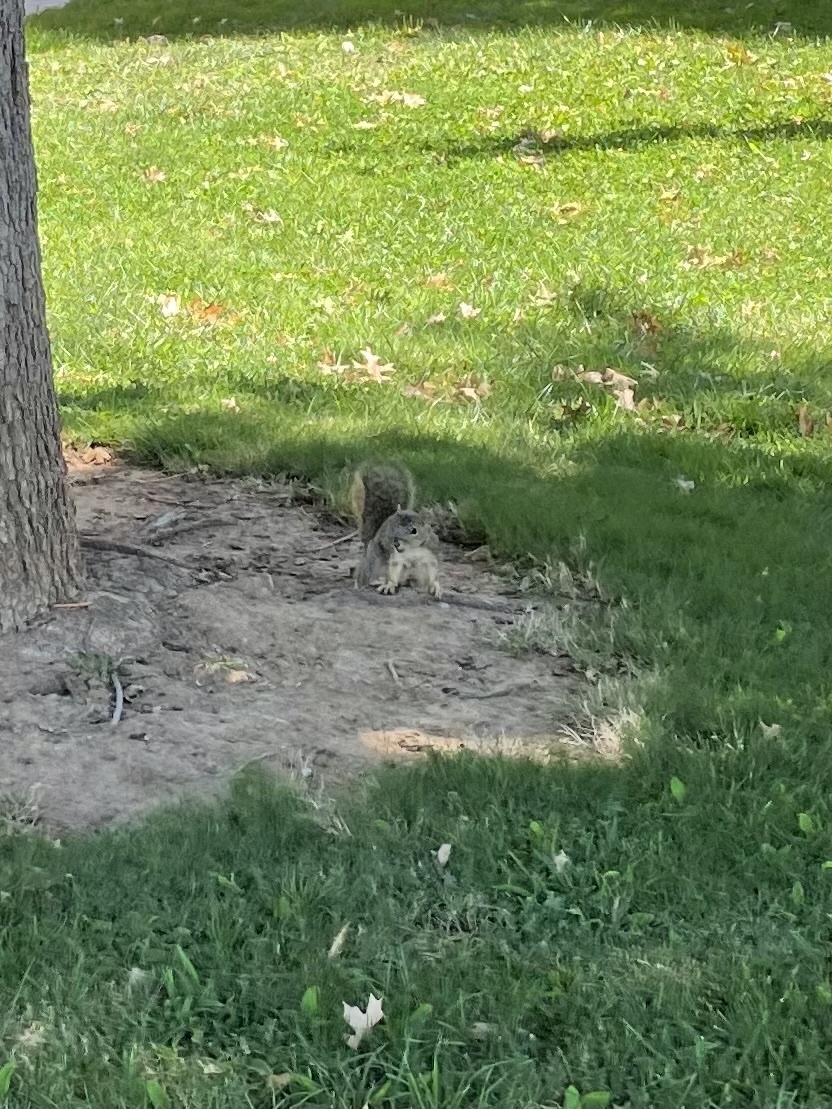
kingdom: Animalia
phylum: Chordata
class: Mammalia
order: Rodentia
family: Sciuridae
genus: Sciurus
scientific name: Sciurus niger
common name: Fox squirrel
